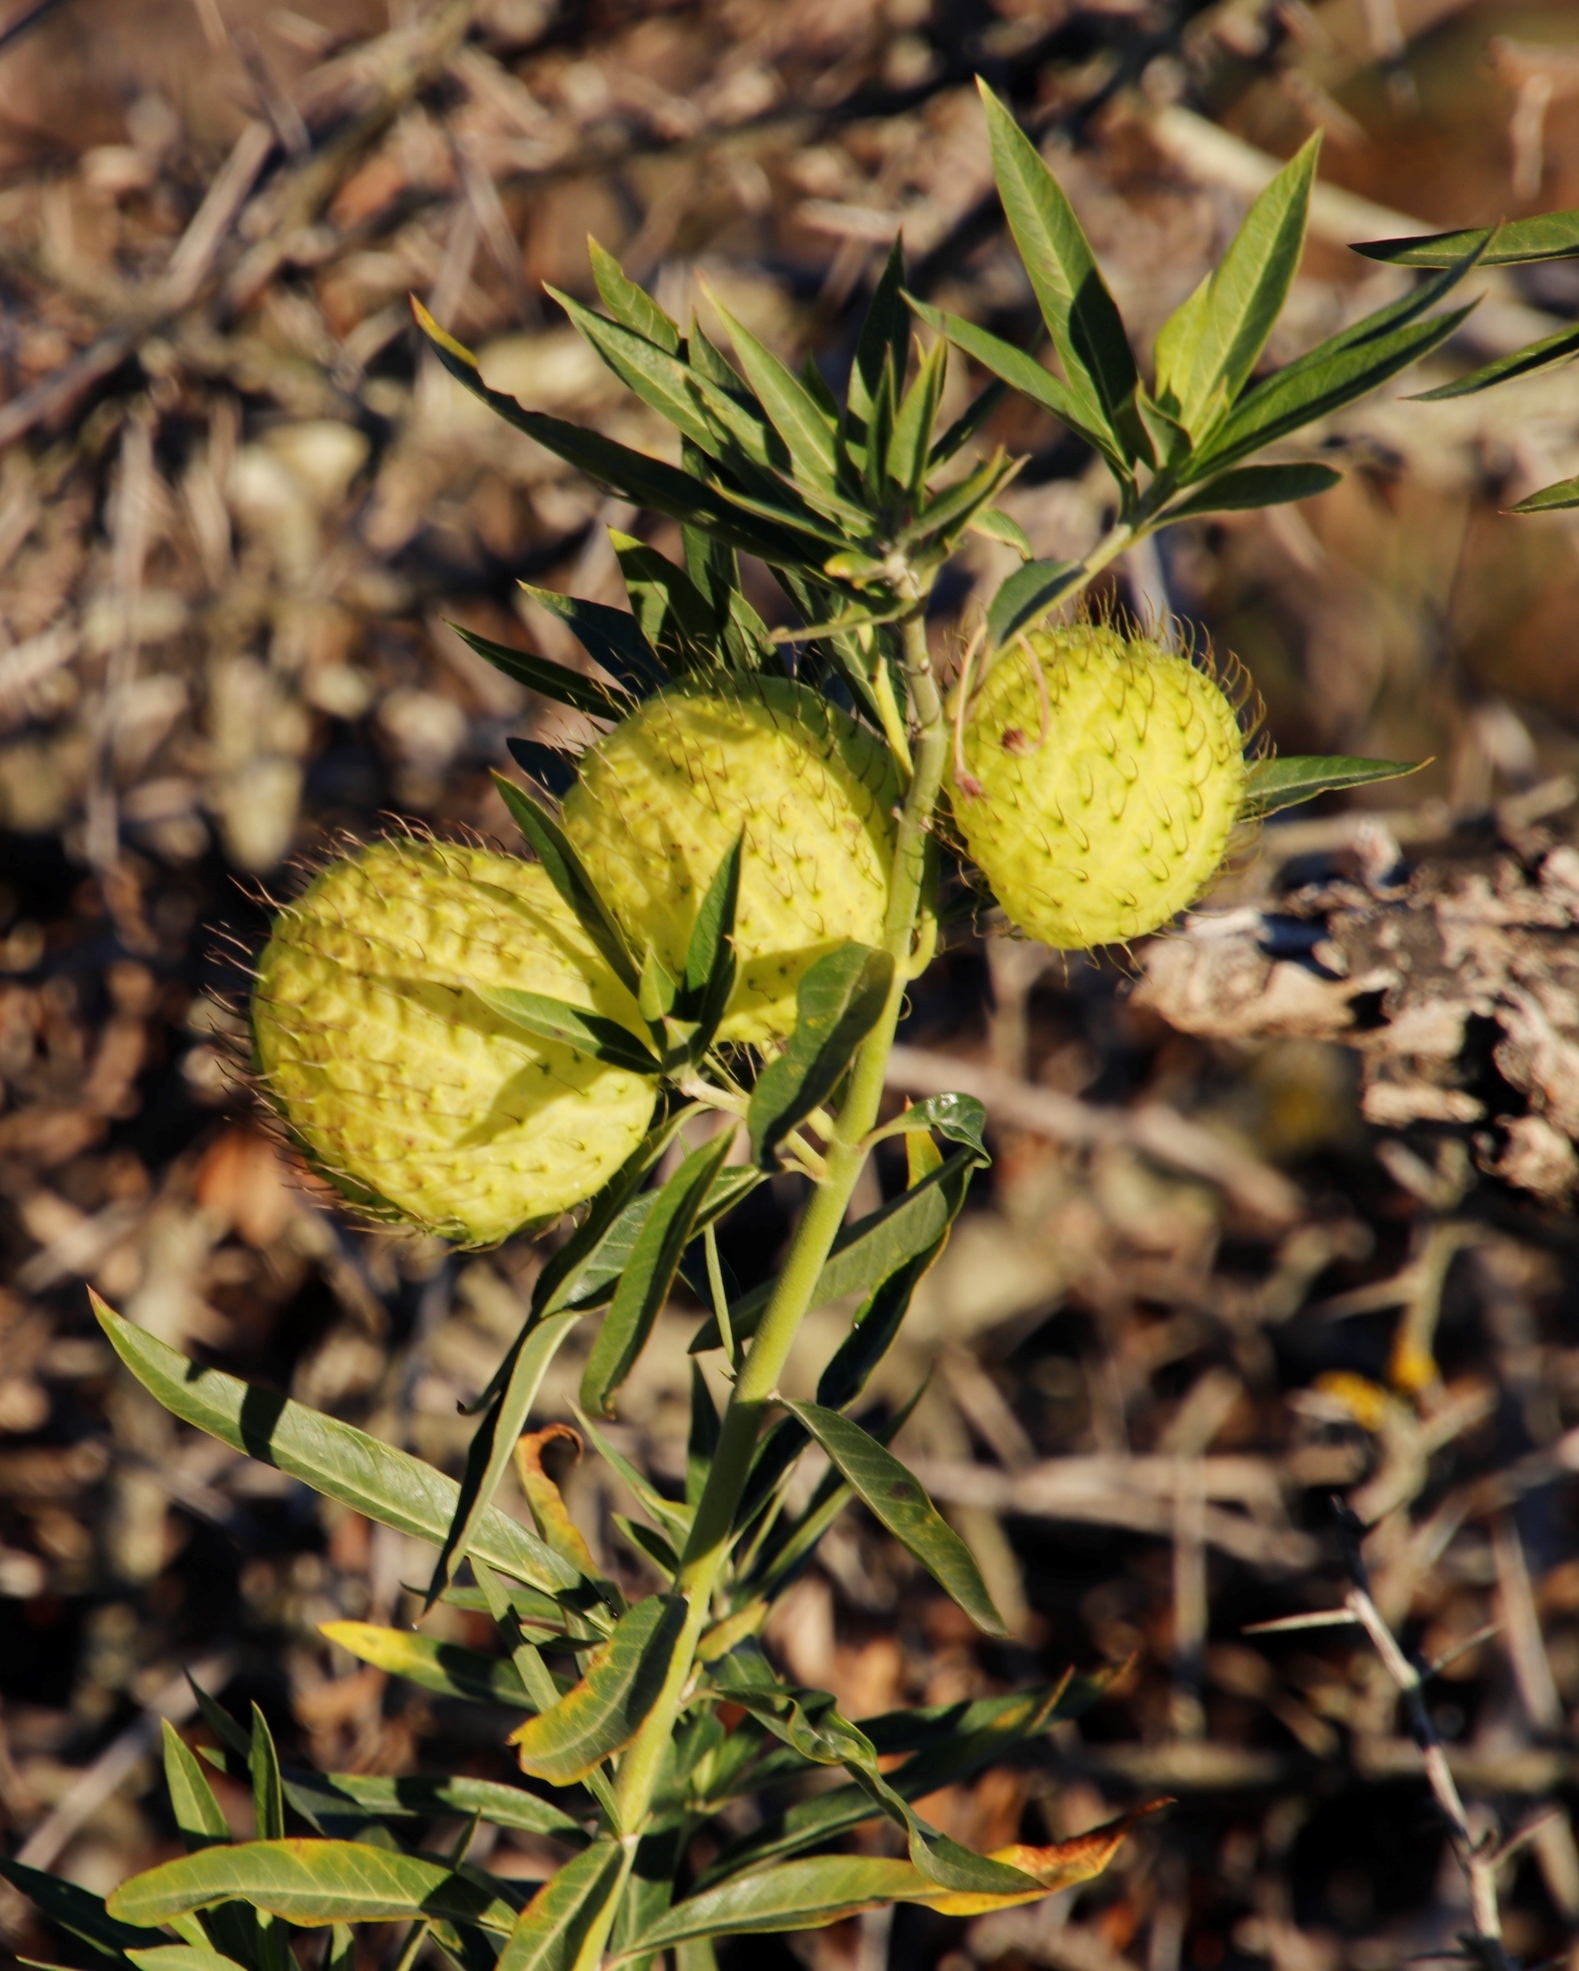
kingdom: Plantae
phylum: Tracheophyta
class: Magnoliopsida
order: Gentianales
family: Apocynaceae
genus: Gomphocarpus
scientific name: Gomphocarpus physocarpus
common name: Balloon cotton bush
